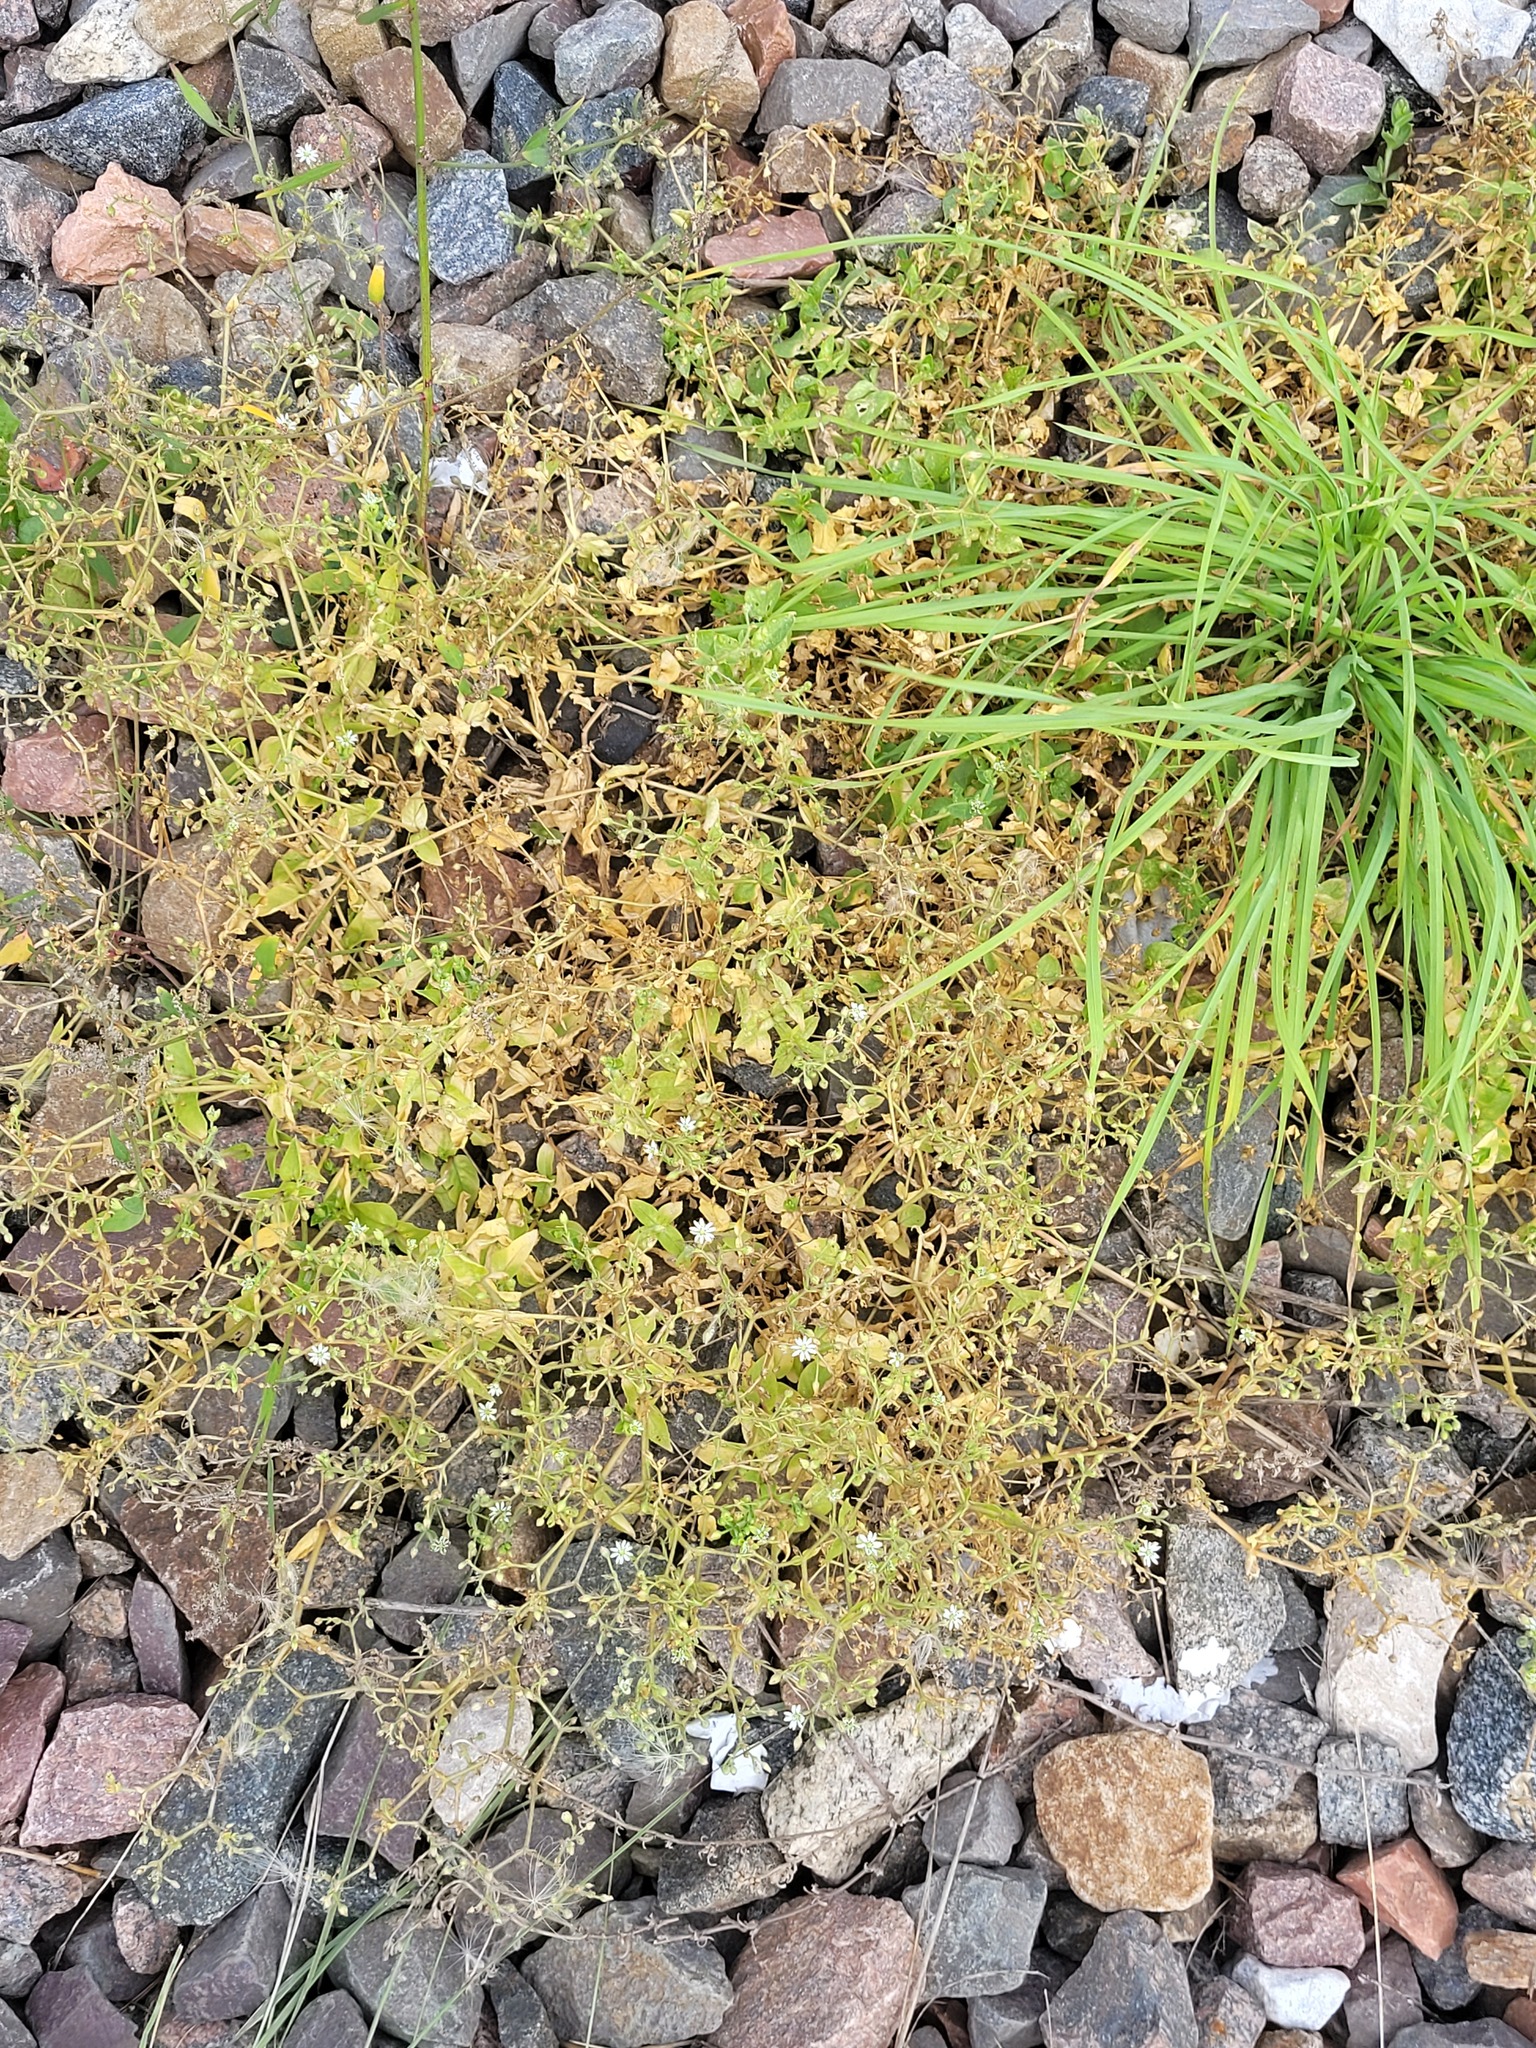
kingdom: Plantae
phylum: Tracheophyta
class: Magnoliopsida
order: Caryophyllales
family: Caryophyllaceae
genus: Stellaria
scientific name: Stellaria aquatica
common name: Water chickweed
